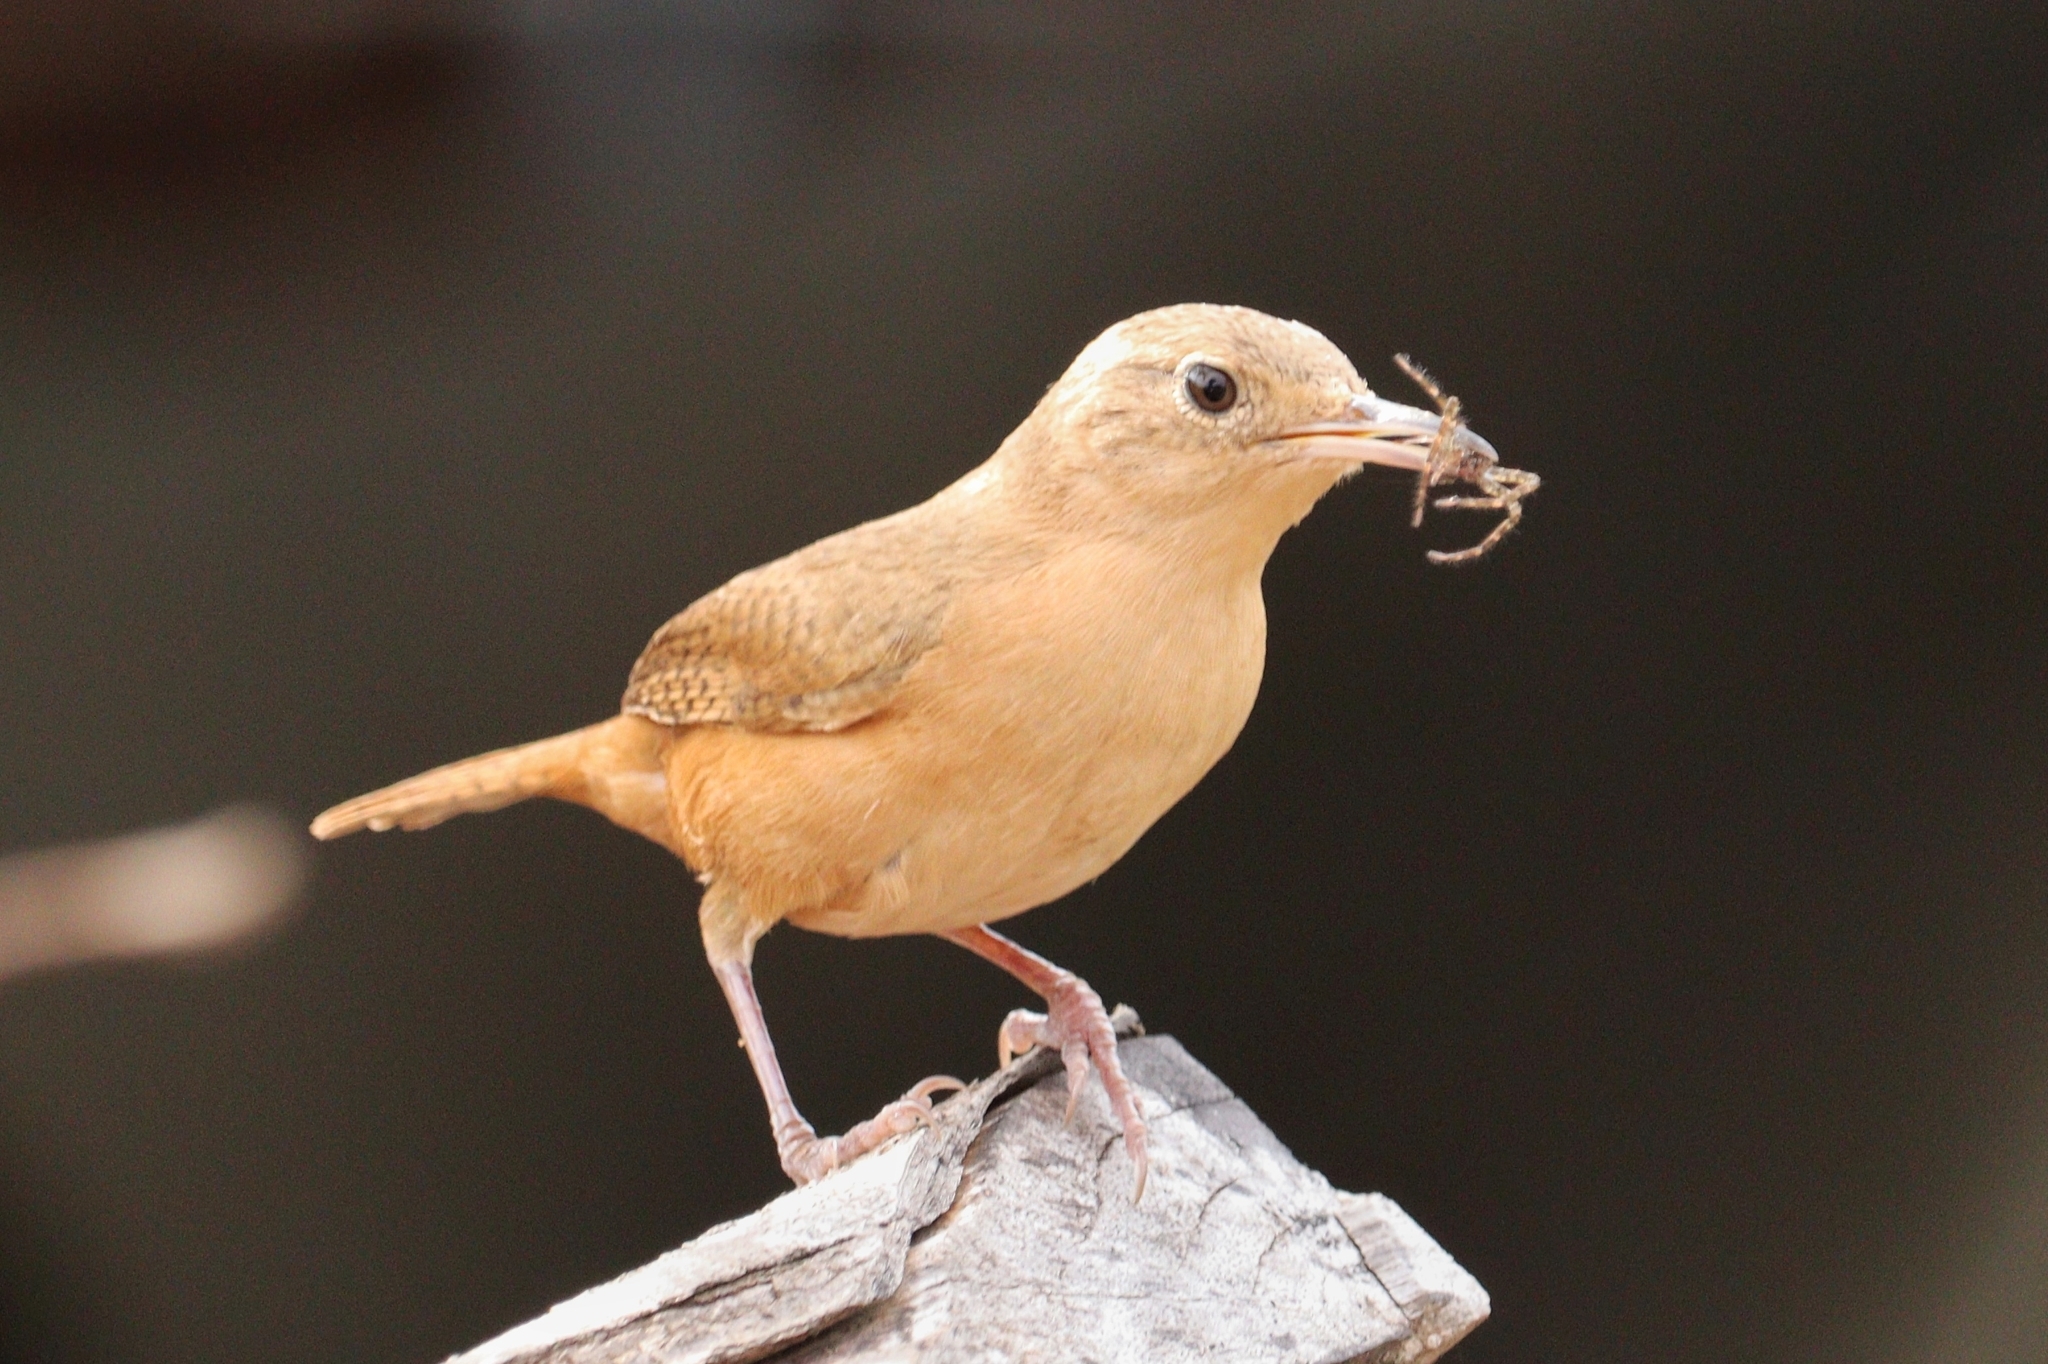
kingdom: Animalia
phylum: Chordata
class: Aves
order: Passeriformes
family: Troglodytidae
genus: Troglodytes
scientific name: Troglodytes aedon
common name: House wren
